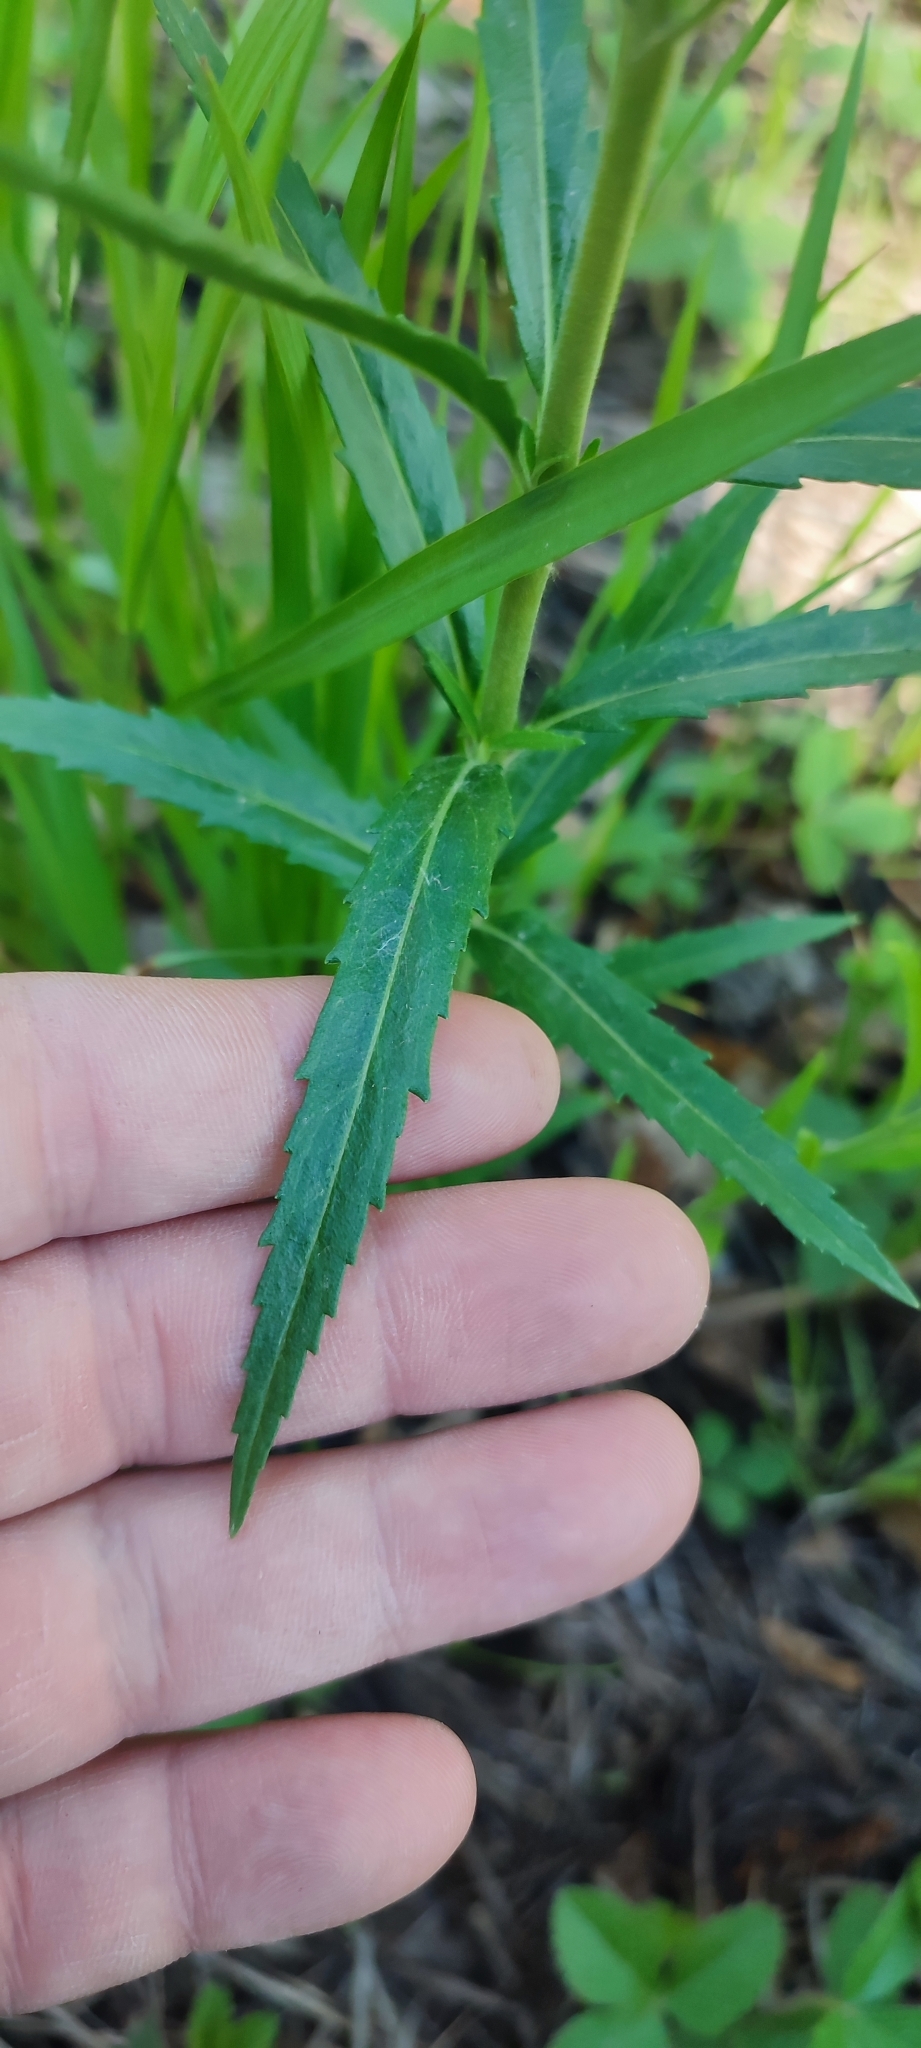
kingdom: Plantae
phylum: Tracheophyta
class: Magnoliopsida
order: Lamiales
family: Plantaginaceae
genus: Veronica
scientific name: Veronica longifolia
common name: Garden speedwell
